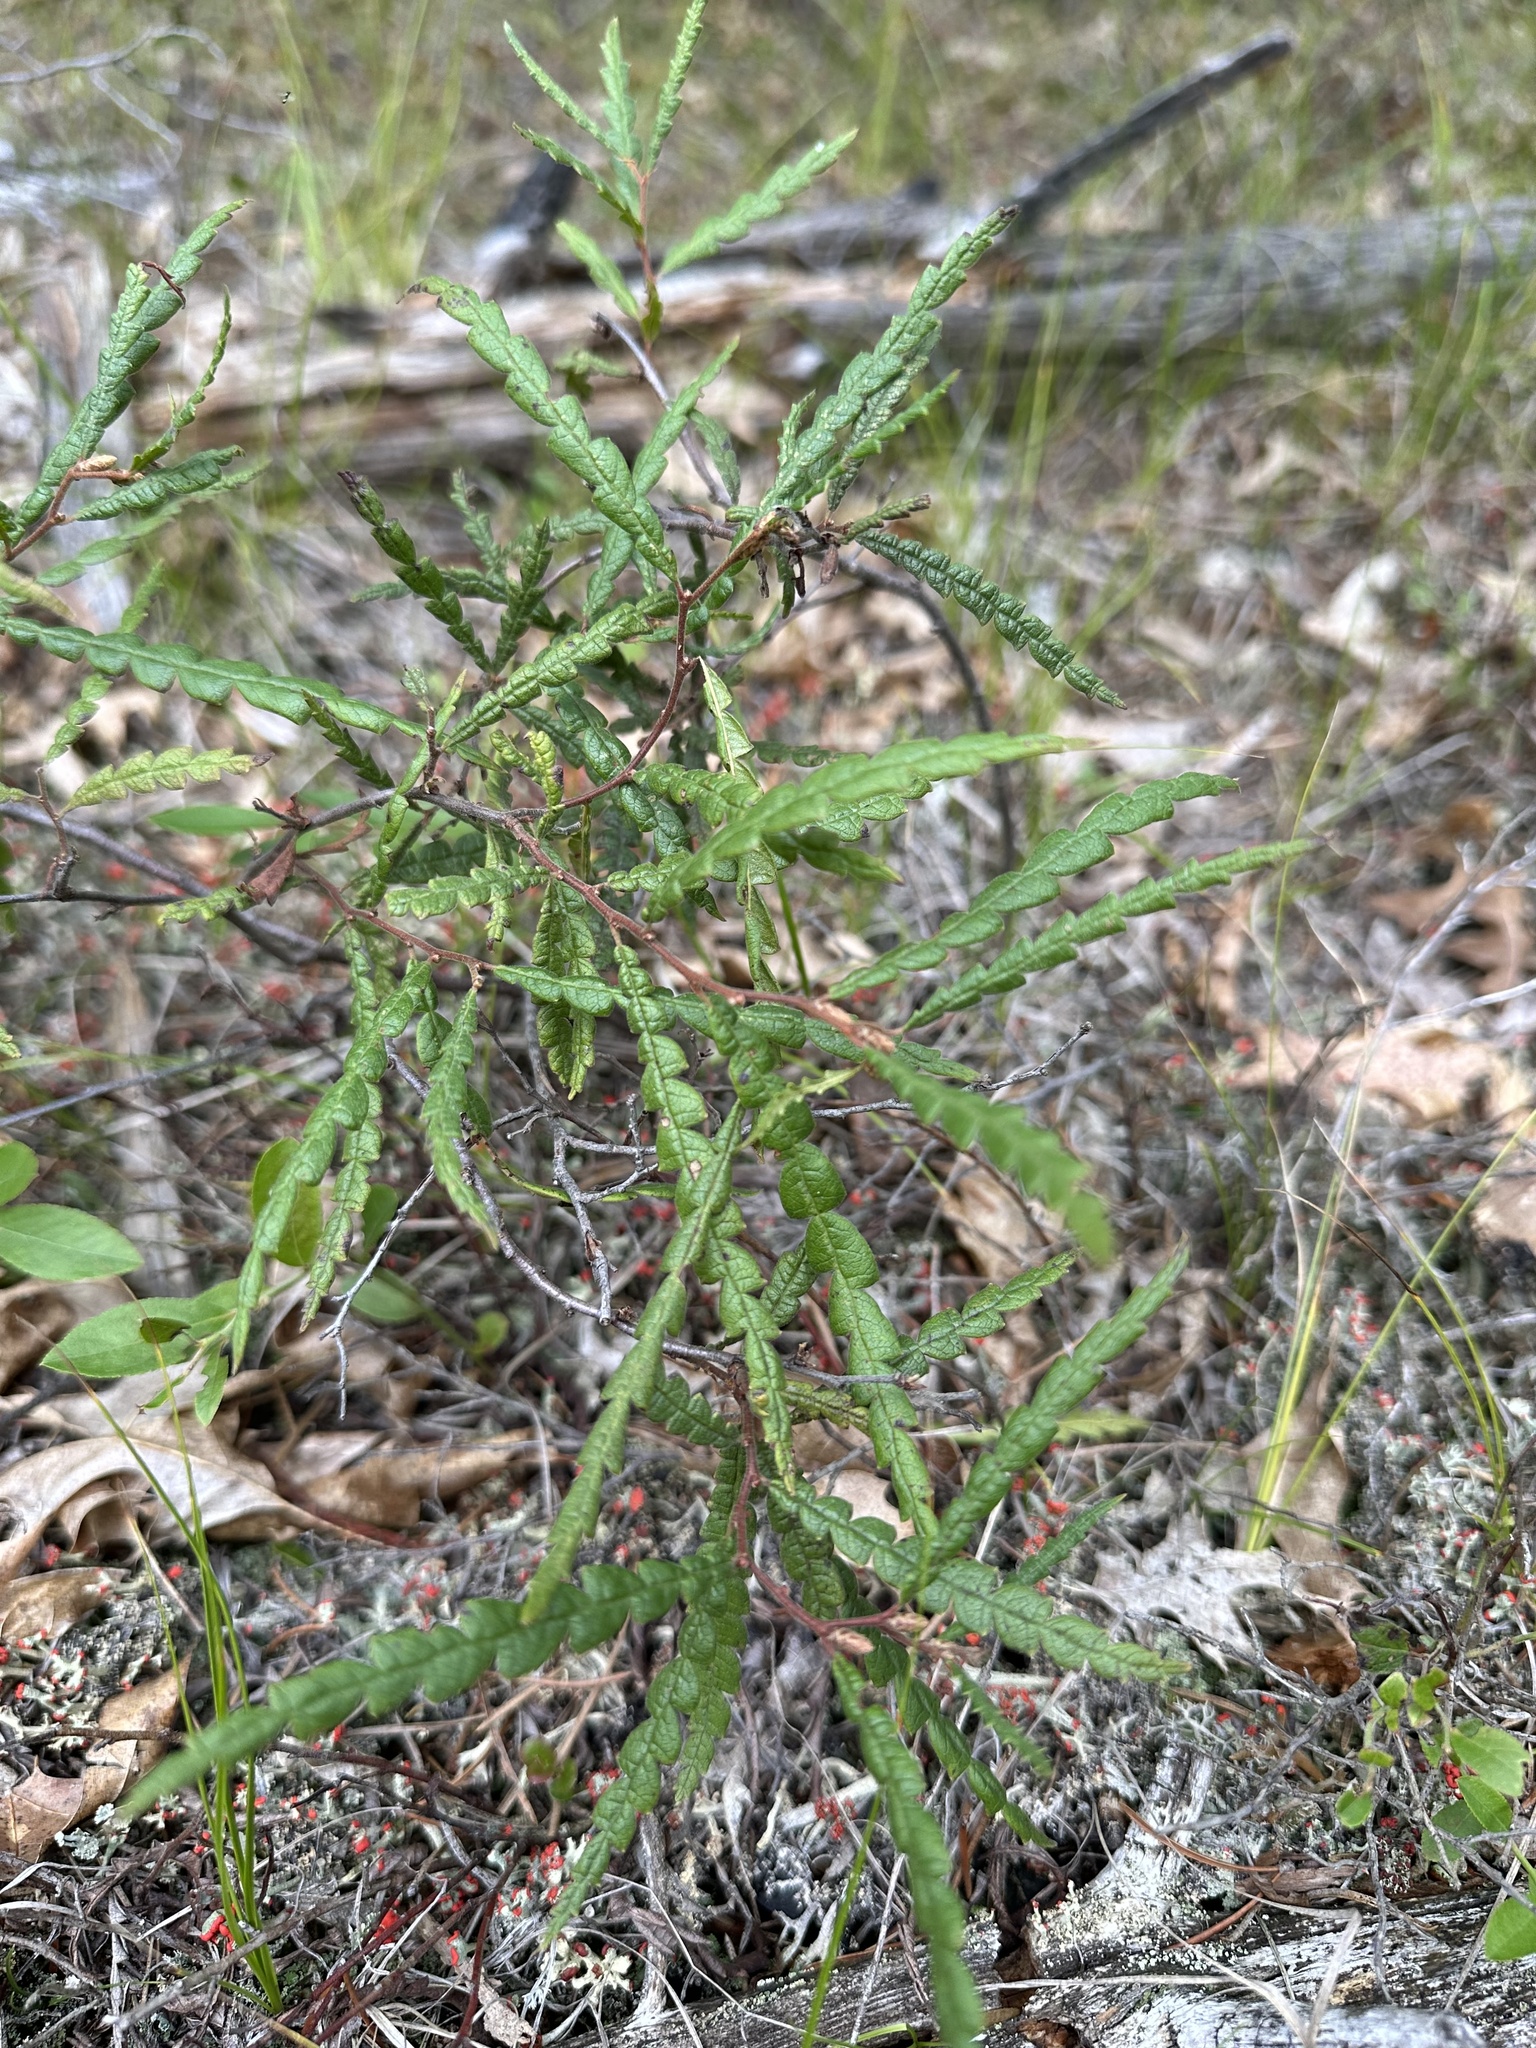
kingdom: Plantae
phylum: Tracheophyta
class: Magnoliopsida
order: Fagales
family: Myricaceae
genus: Comptonia
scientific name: Comptonia peregrina
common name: Sweet-fern
